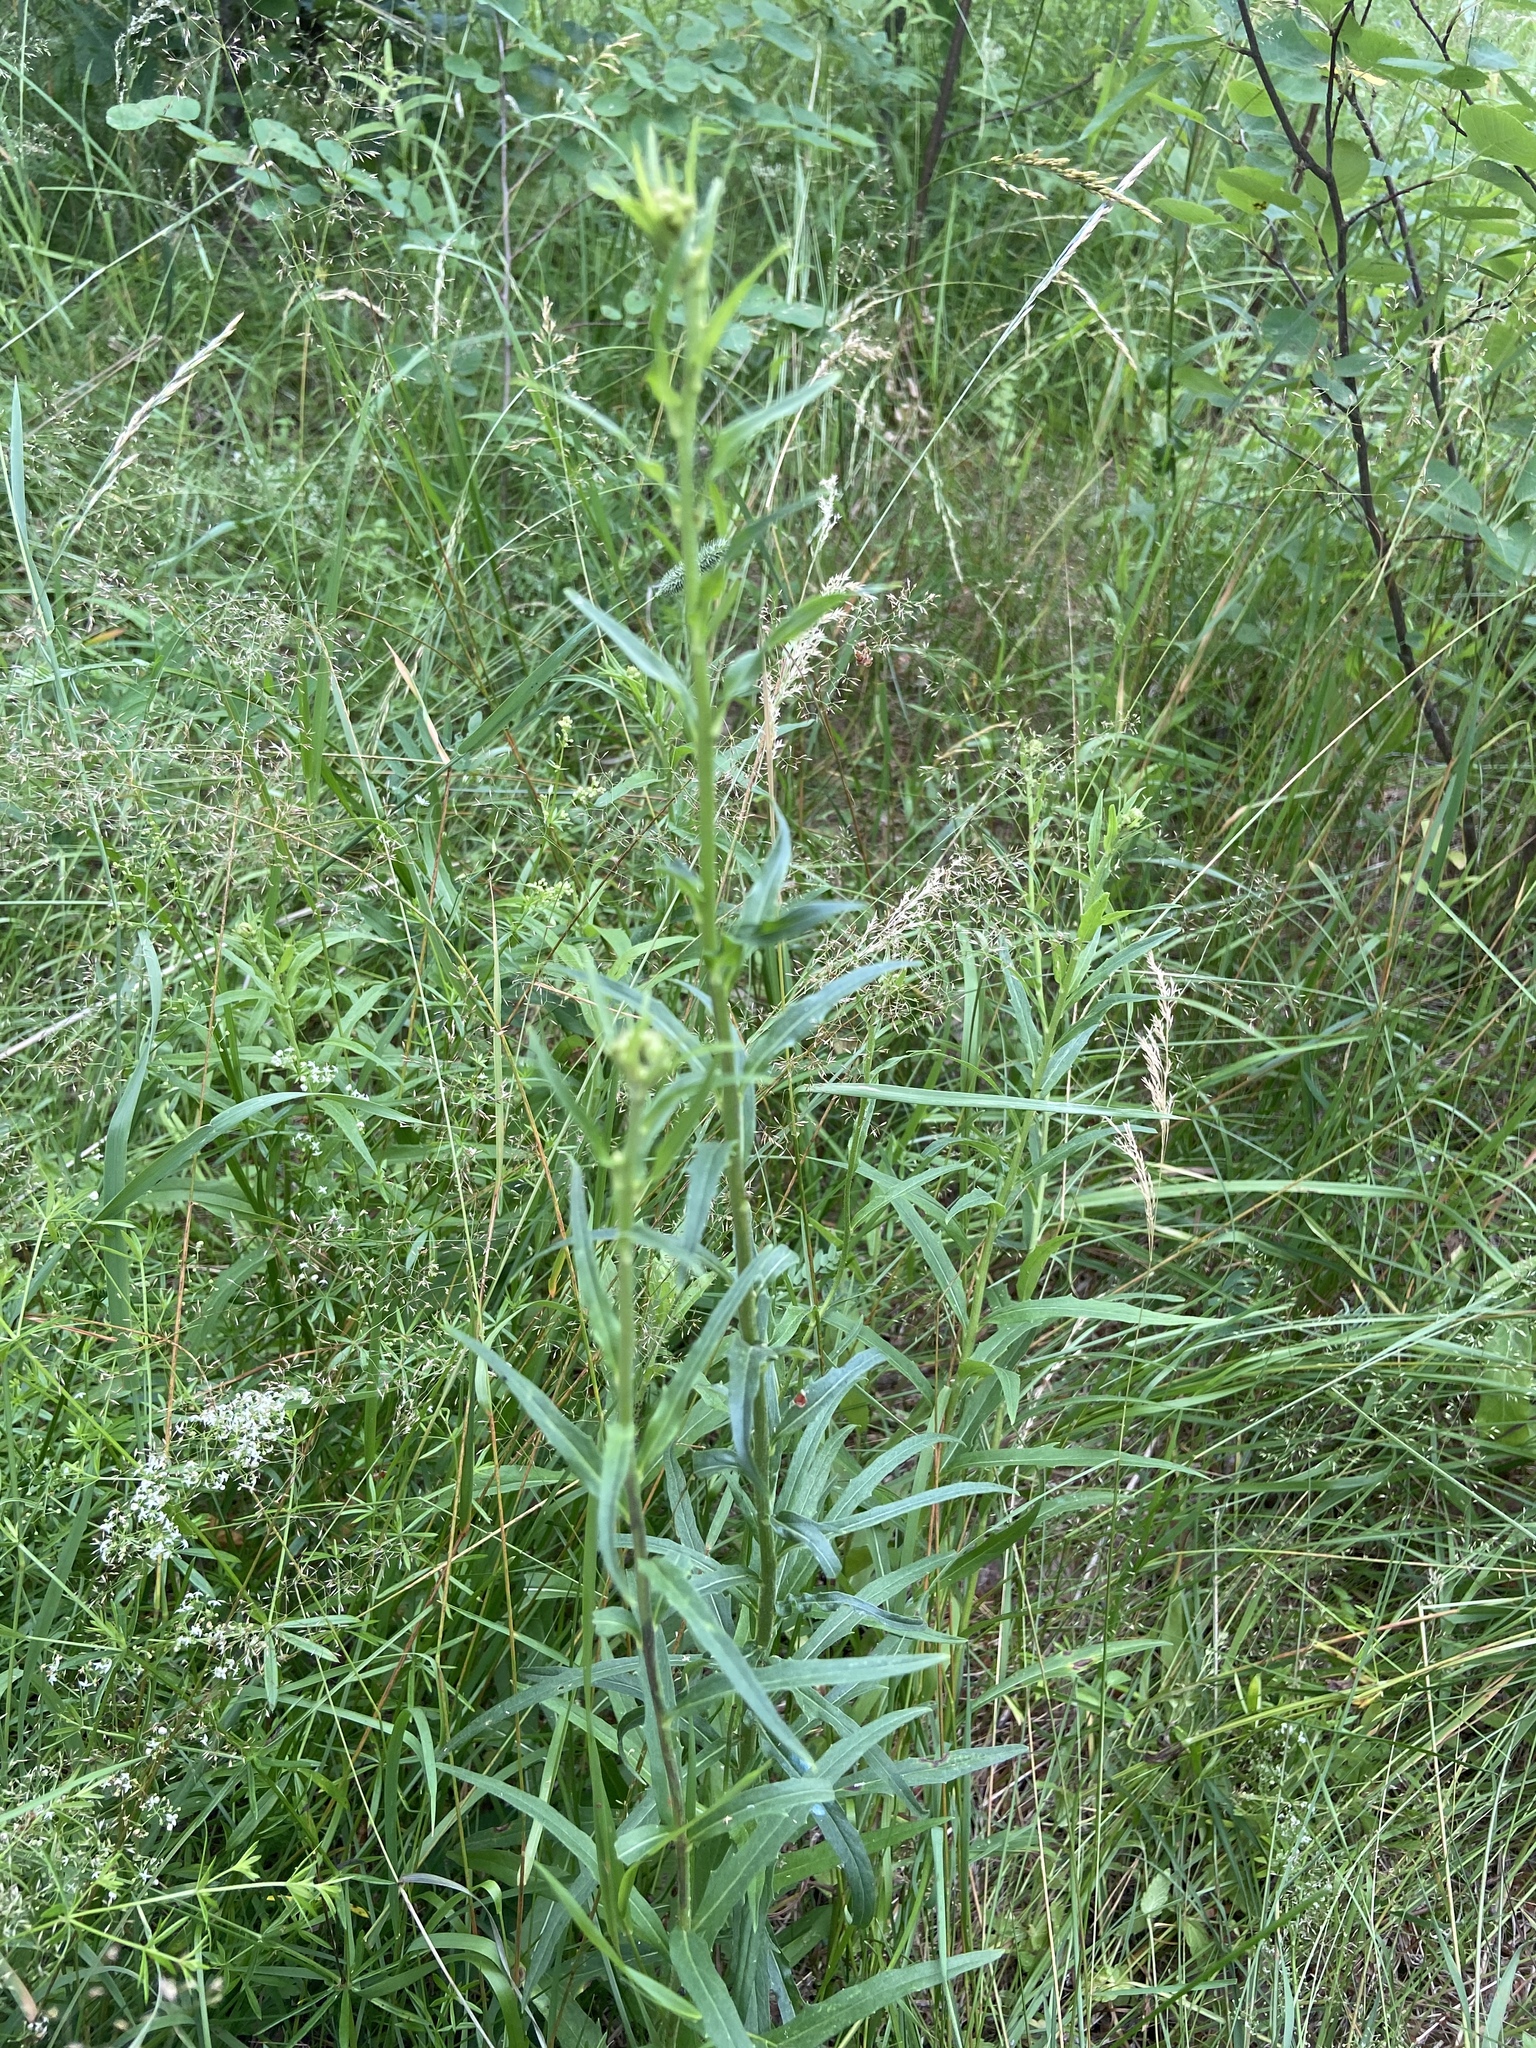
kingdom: Plantae
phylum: Tracheophyta
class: Magnoliopsida
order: Asterales
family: Asteraceae
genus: Hieracium
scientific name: Hieracium umbellatum
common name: Northern hawkweed
